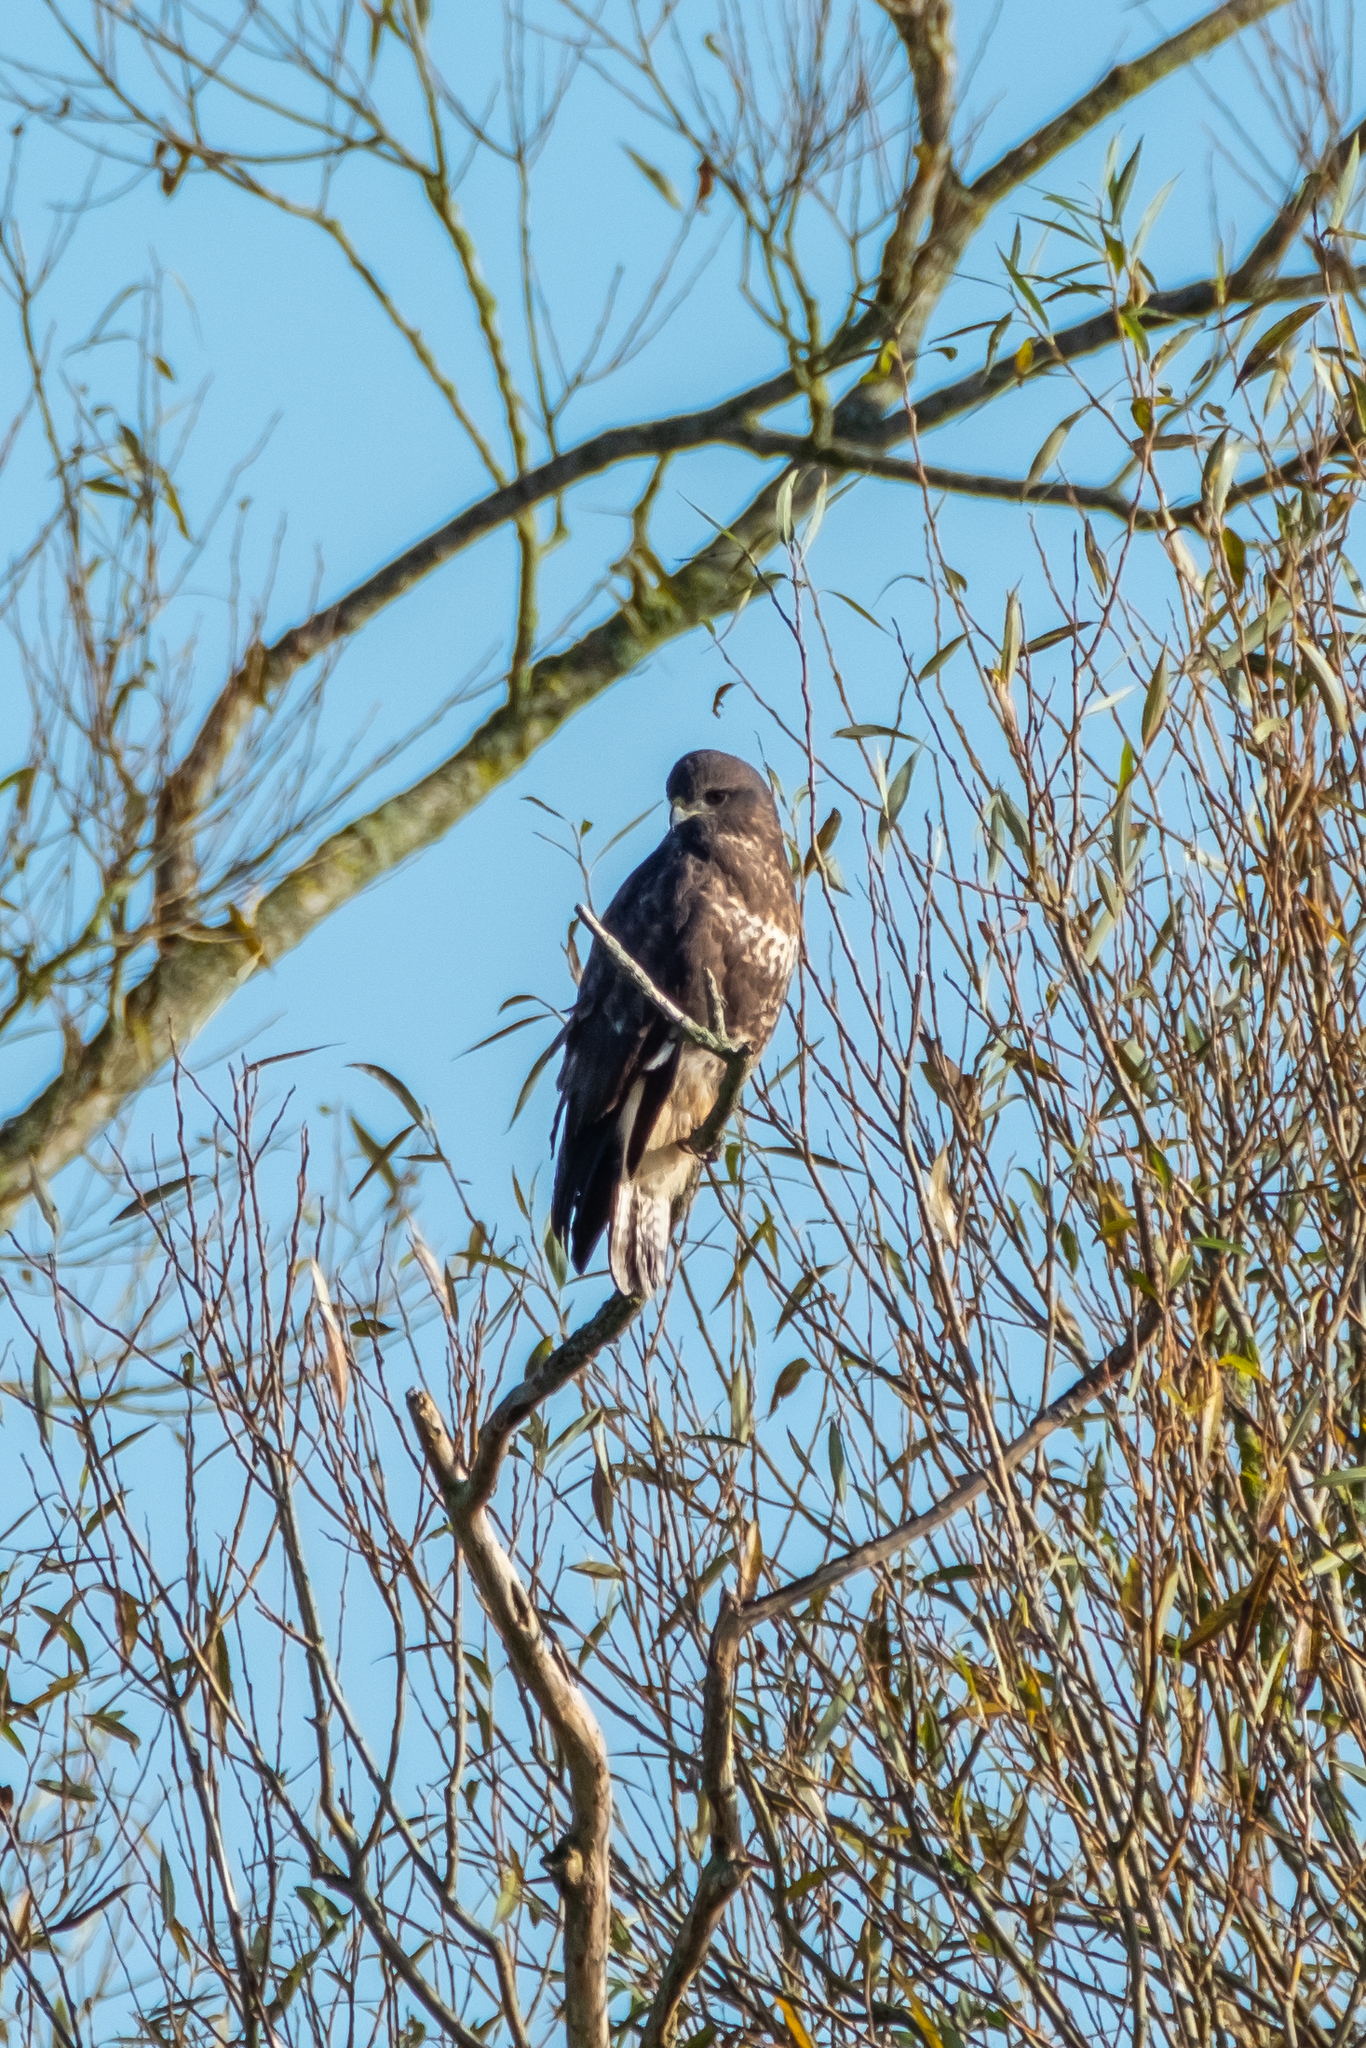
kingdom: Animalia
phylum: Chordata
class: Aves
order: Accipitriformes
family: Accipitridae
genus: Buteo
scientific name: Buteo buteo
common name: Common buzzard
